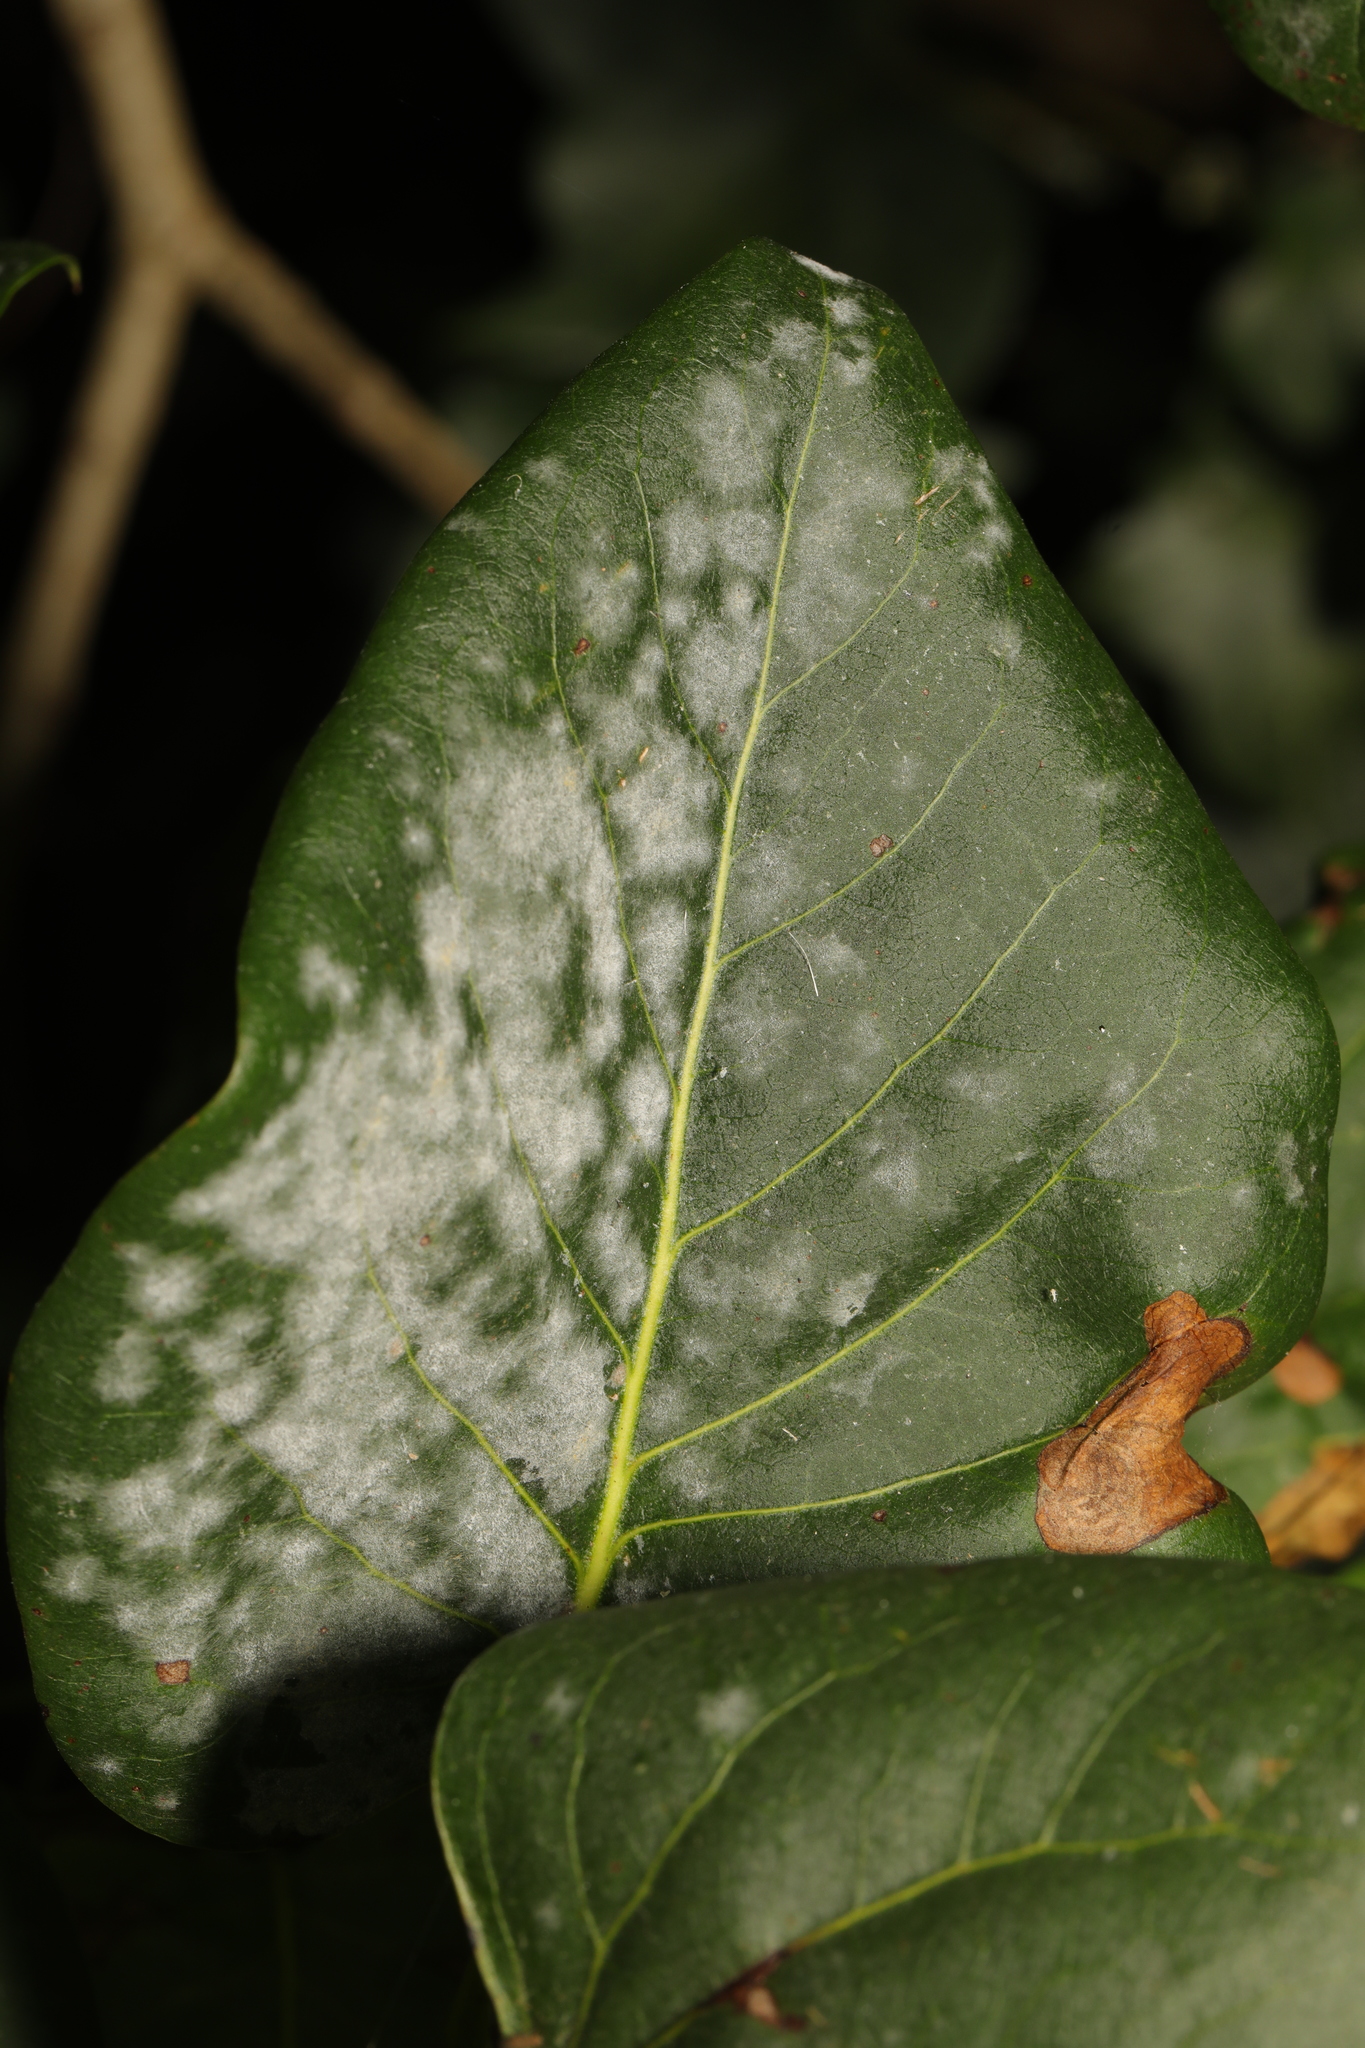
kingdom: Fungi
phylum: Ascomycota
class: Leotiomycetes
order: Helotiales
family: Erysiphaceae
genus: Erysiphe
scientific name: Erysiphe penicillata
